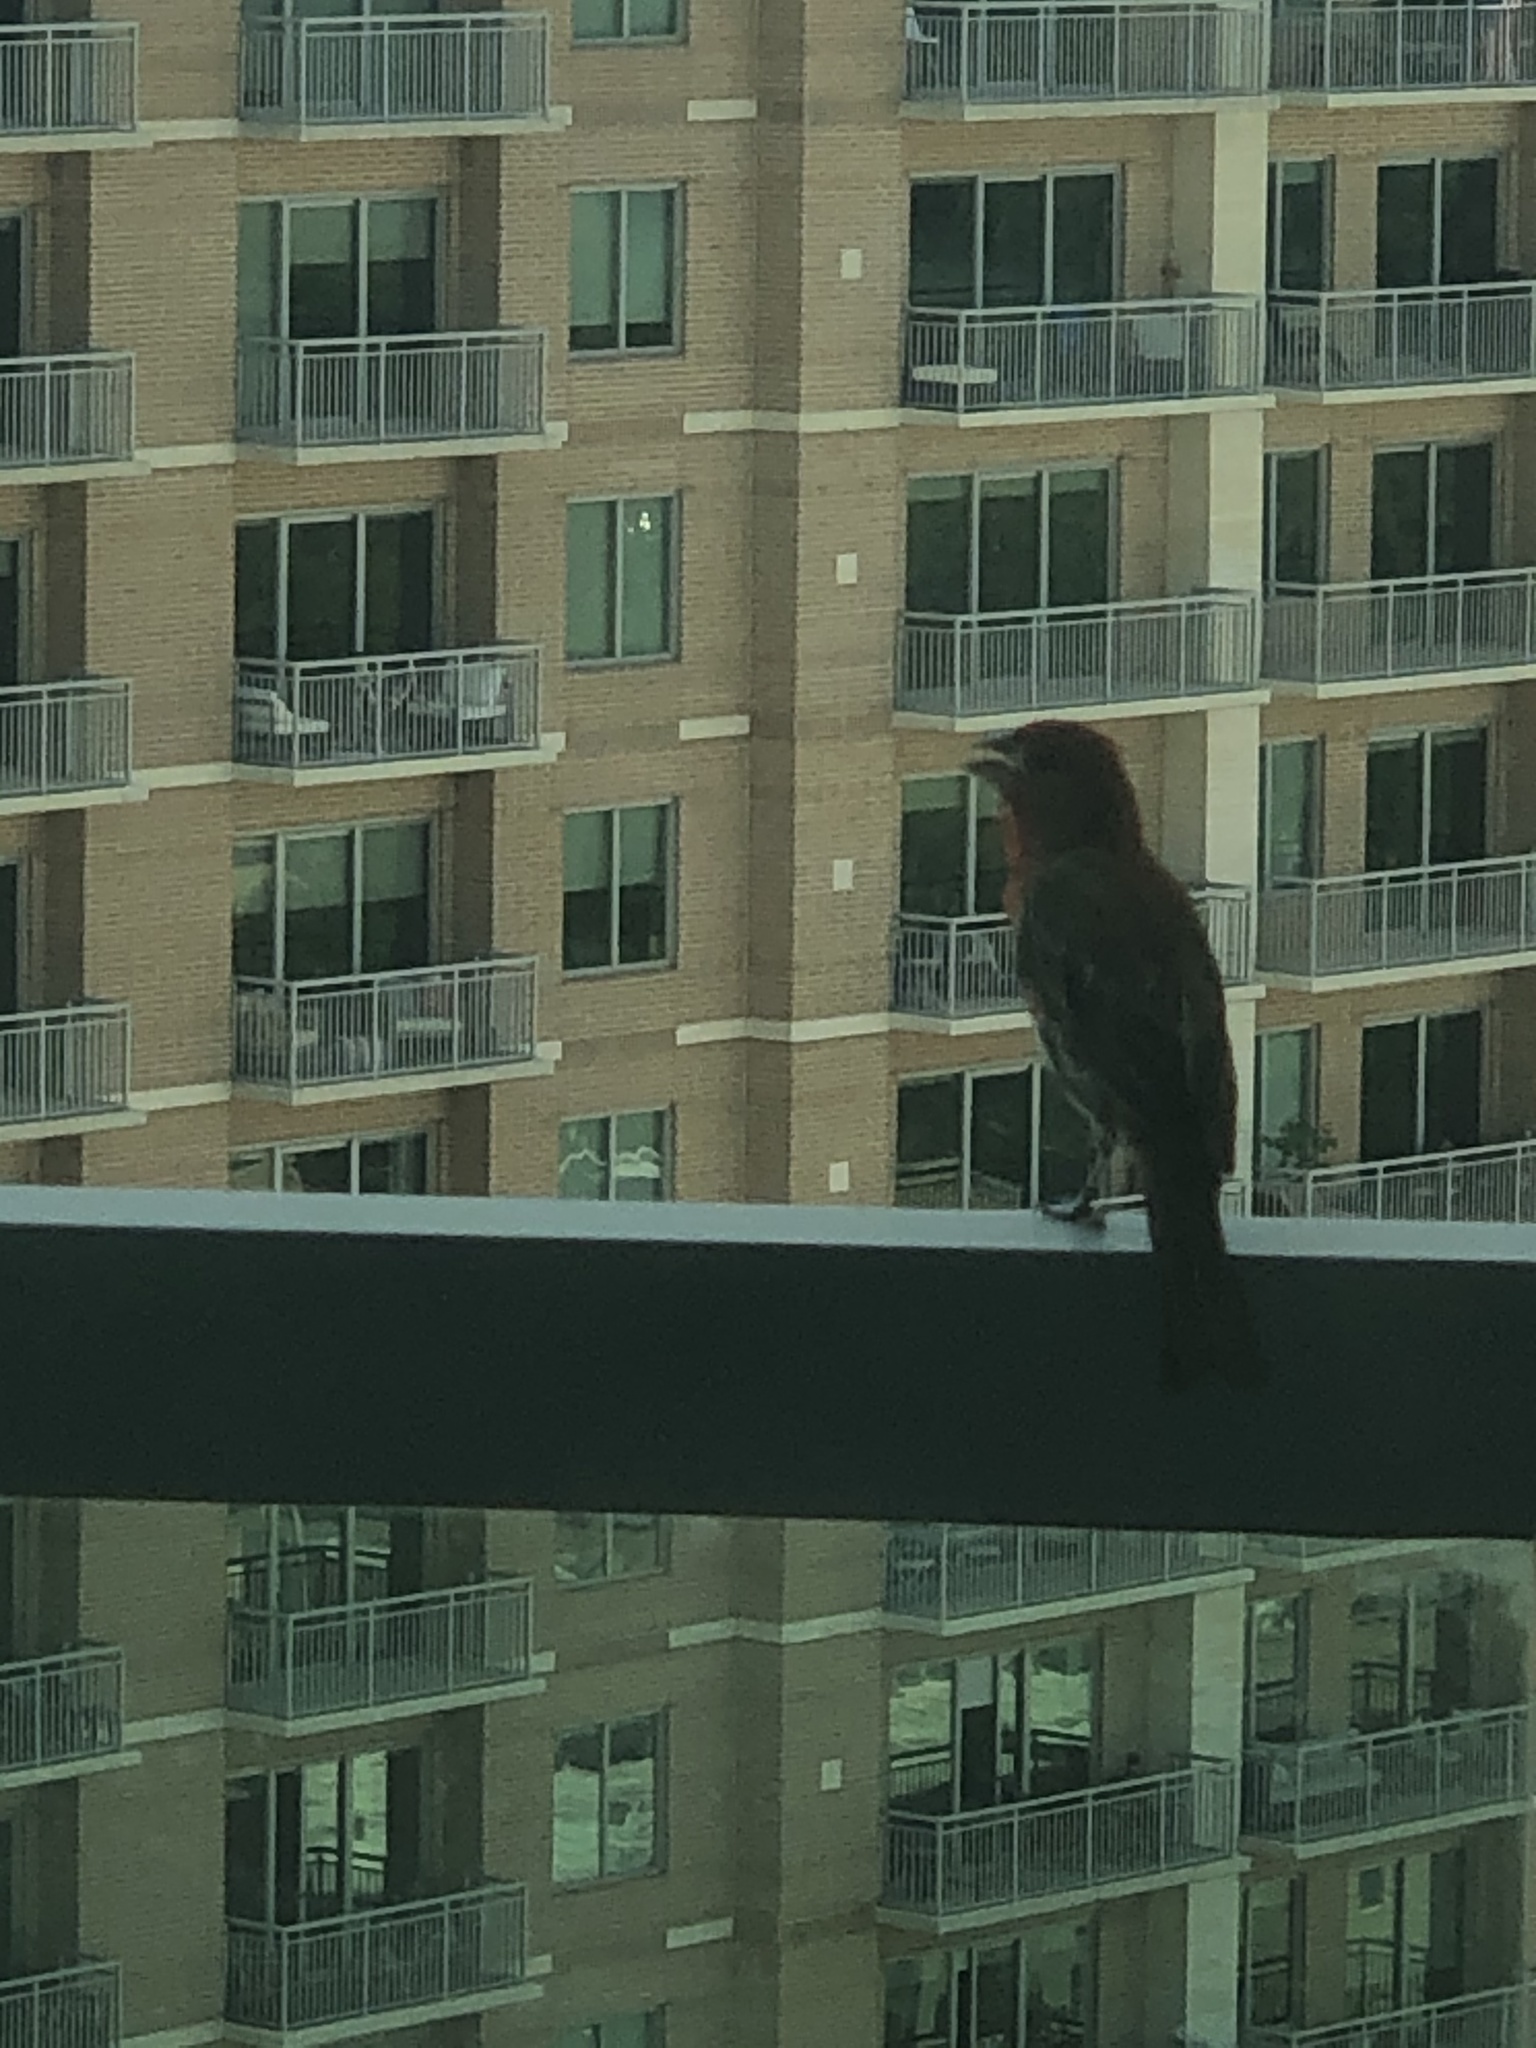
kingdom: Animalia
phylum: Chordata
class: Aves
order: Passeriformes
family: Fringillidae
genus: Haemorhous
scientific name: Haemorhous mexicanus
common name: House finch
